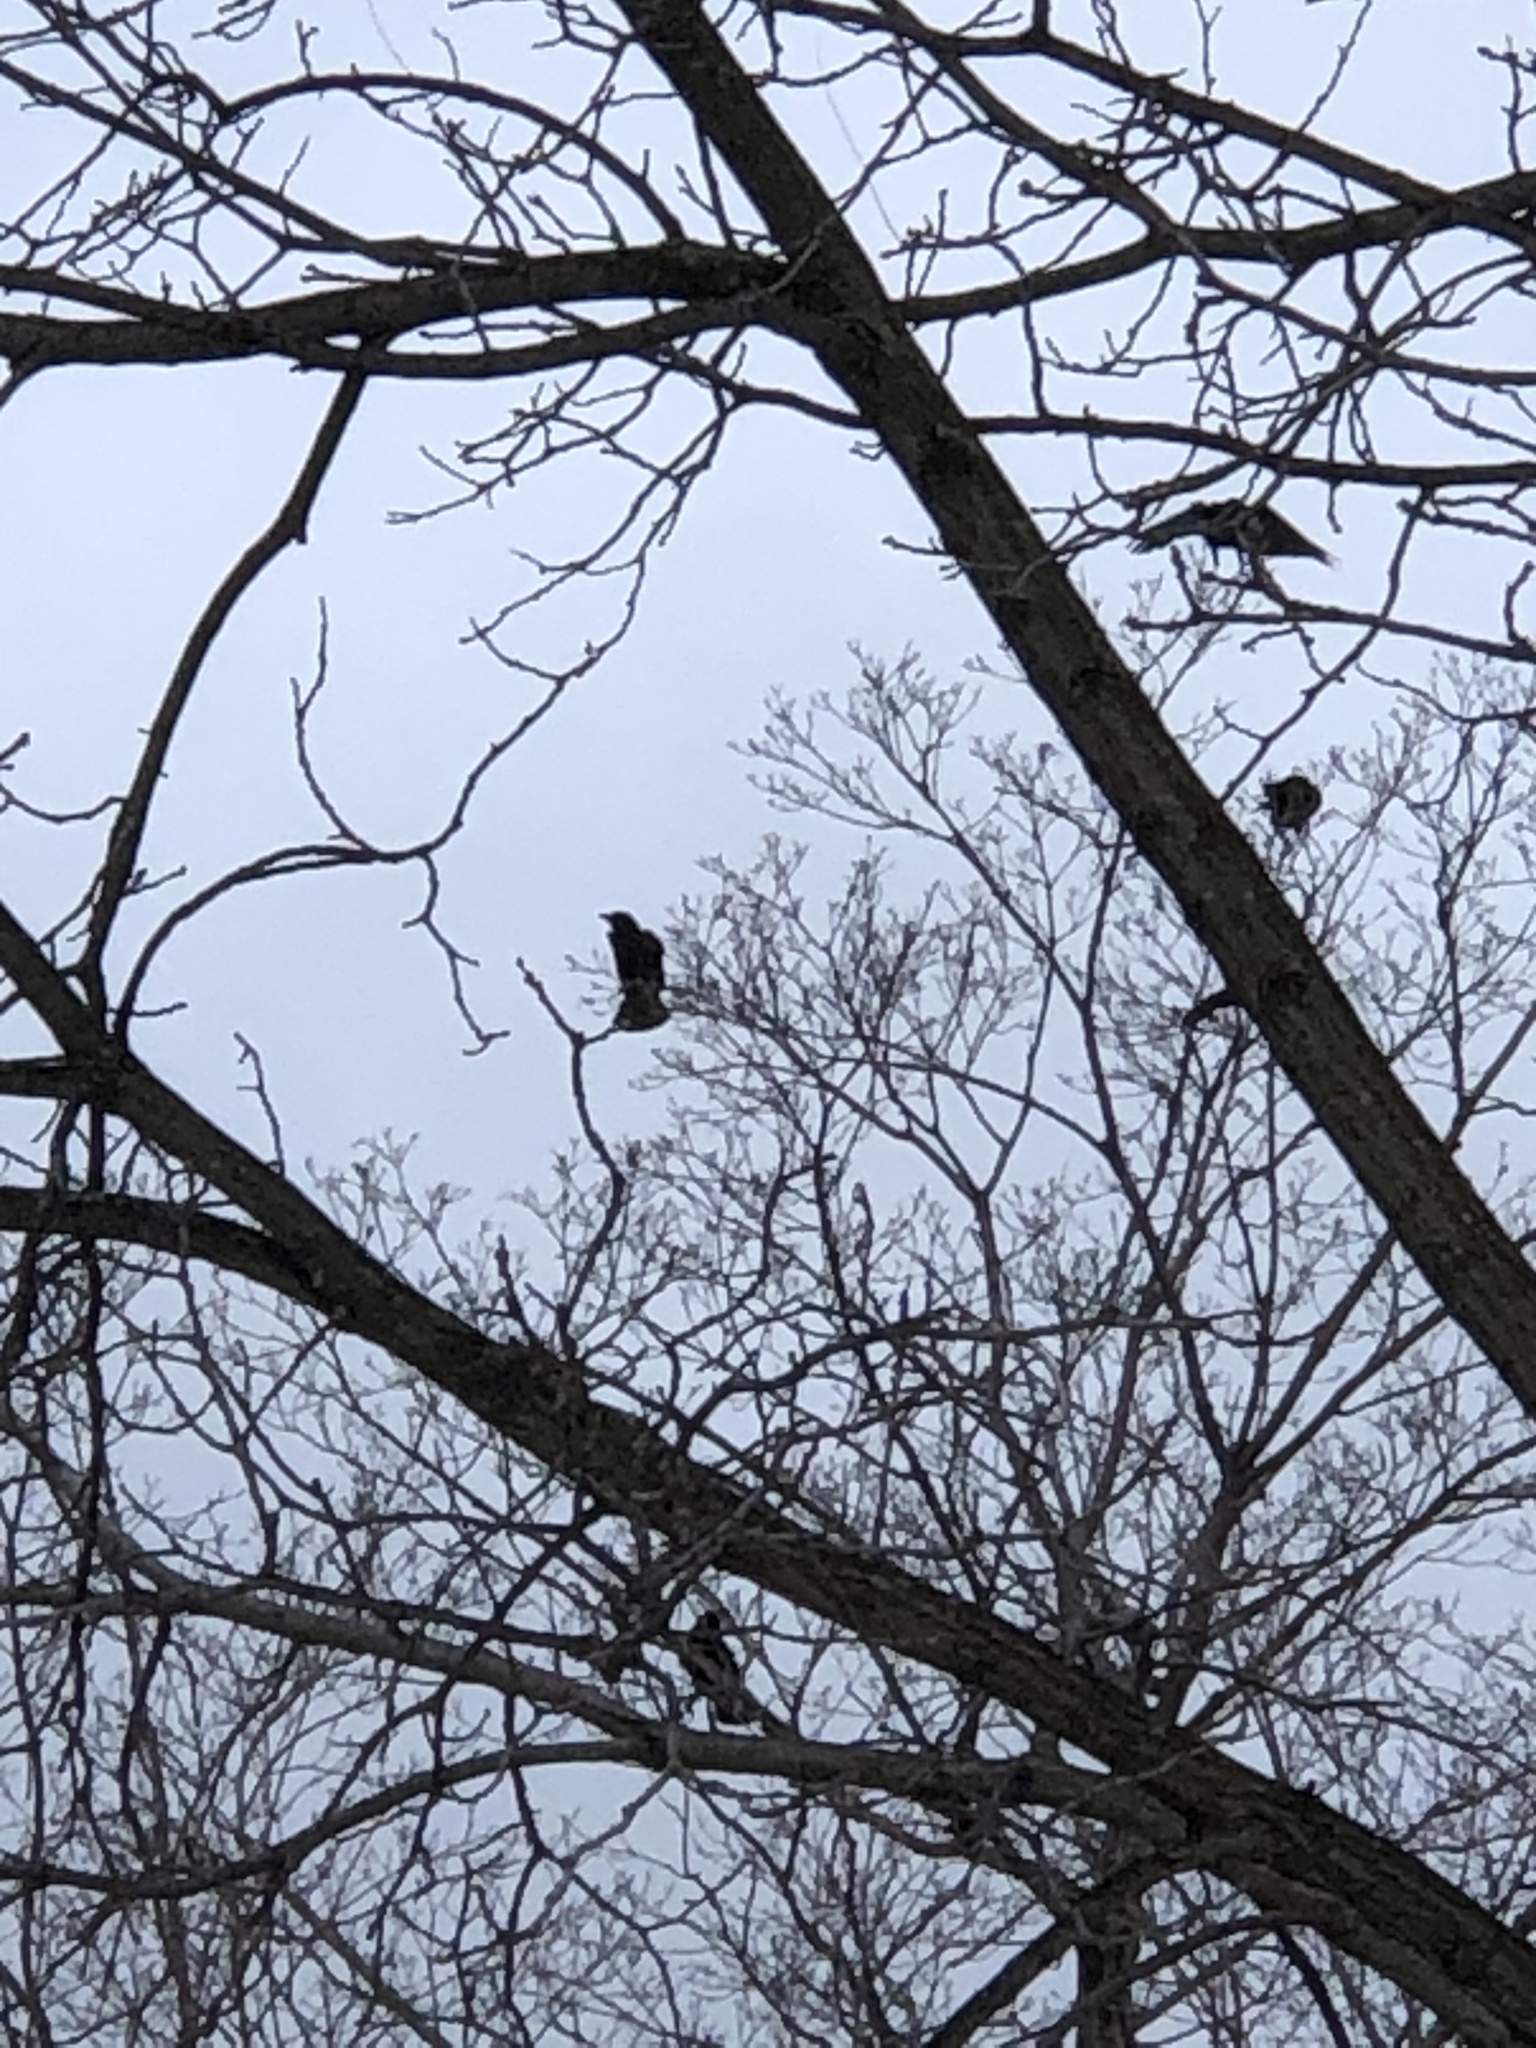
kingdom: Animalia
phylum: Chordata
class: Aves
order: Passeriformes
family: Corvidae
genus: Corvus
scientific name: Corvus brachyrhynchos
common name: American crow
